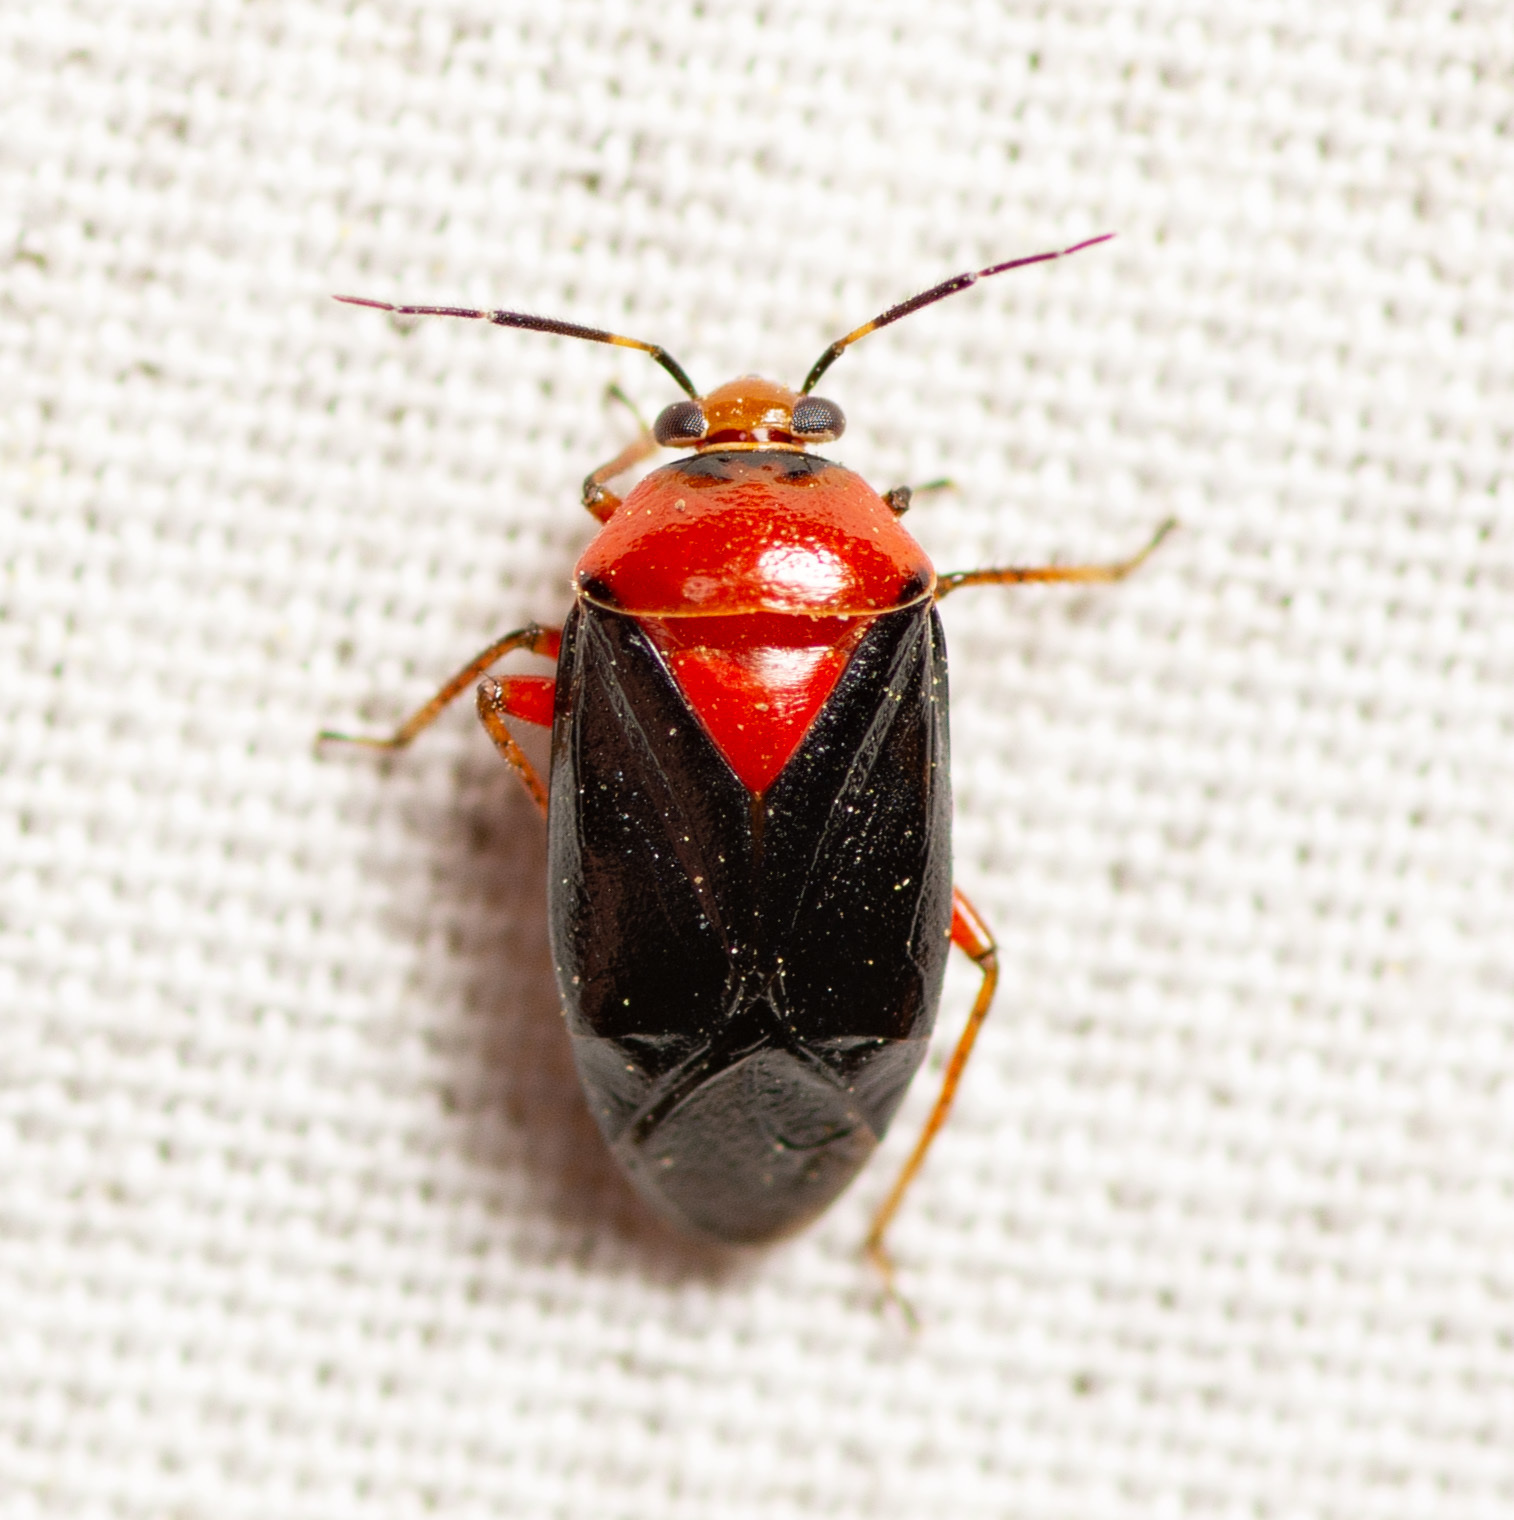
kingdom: Animalia
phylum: Arthropoda
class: Insecta
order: Hemiptera
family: Miridae
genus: Neocapsus
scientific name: Neocapsus cuneatus
